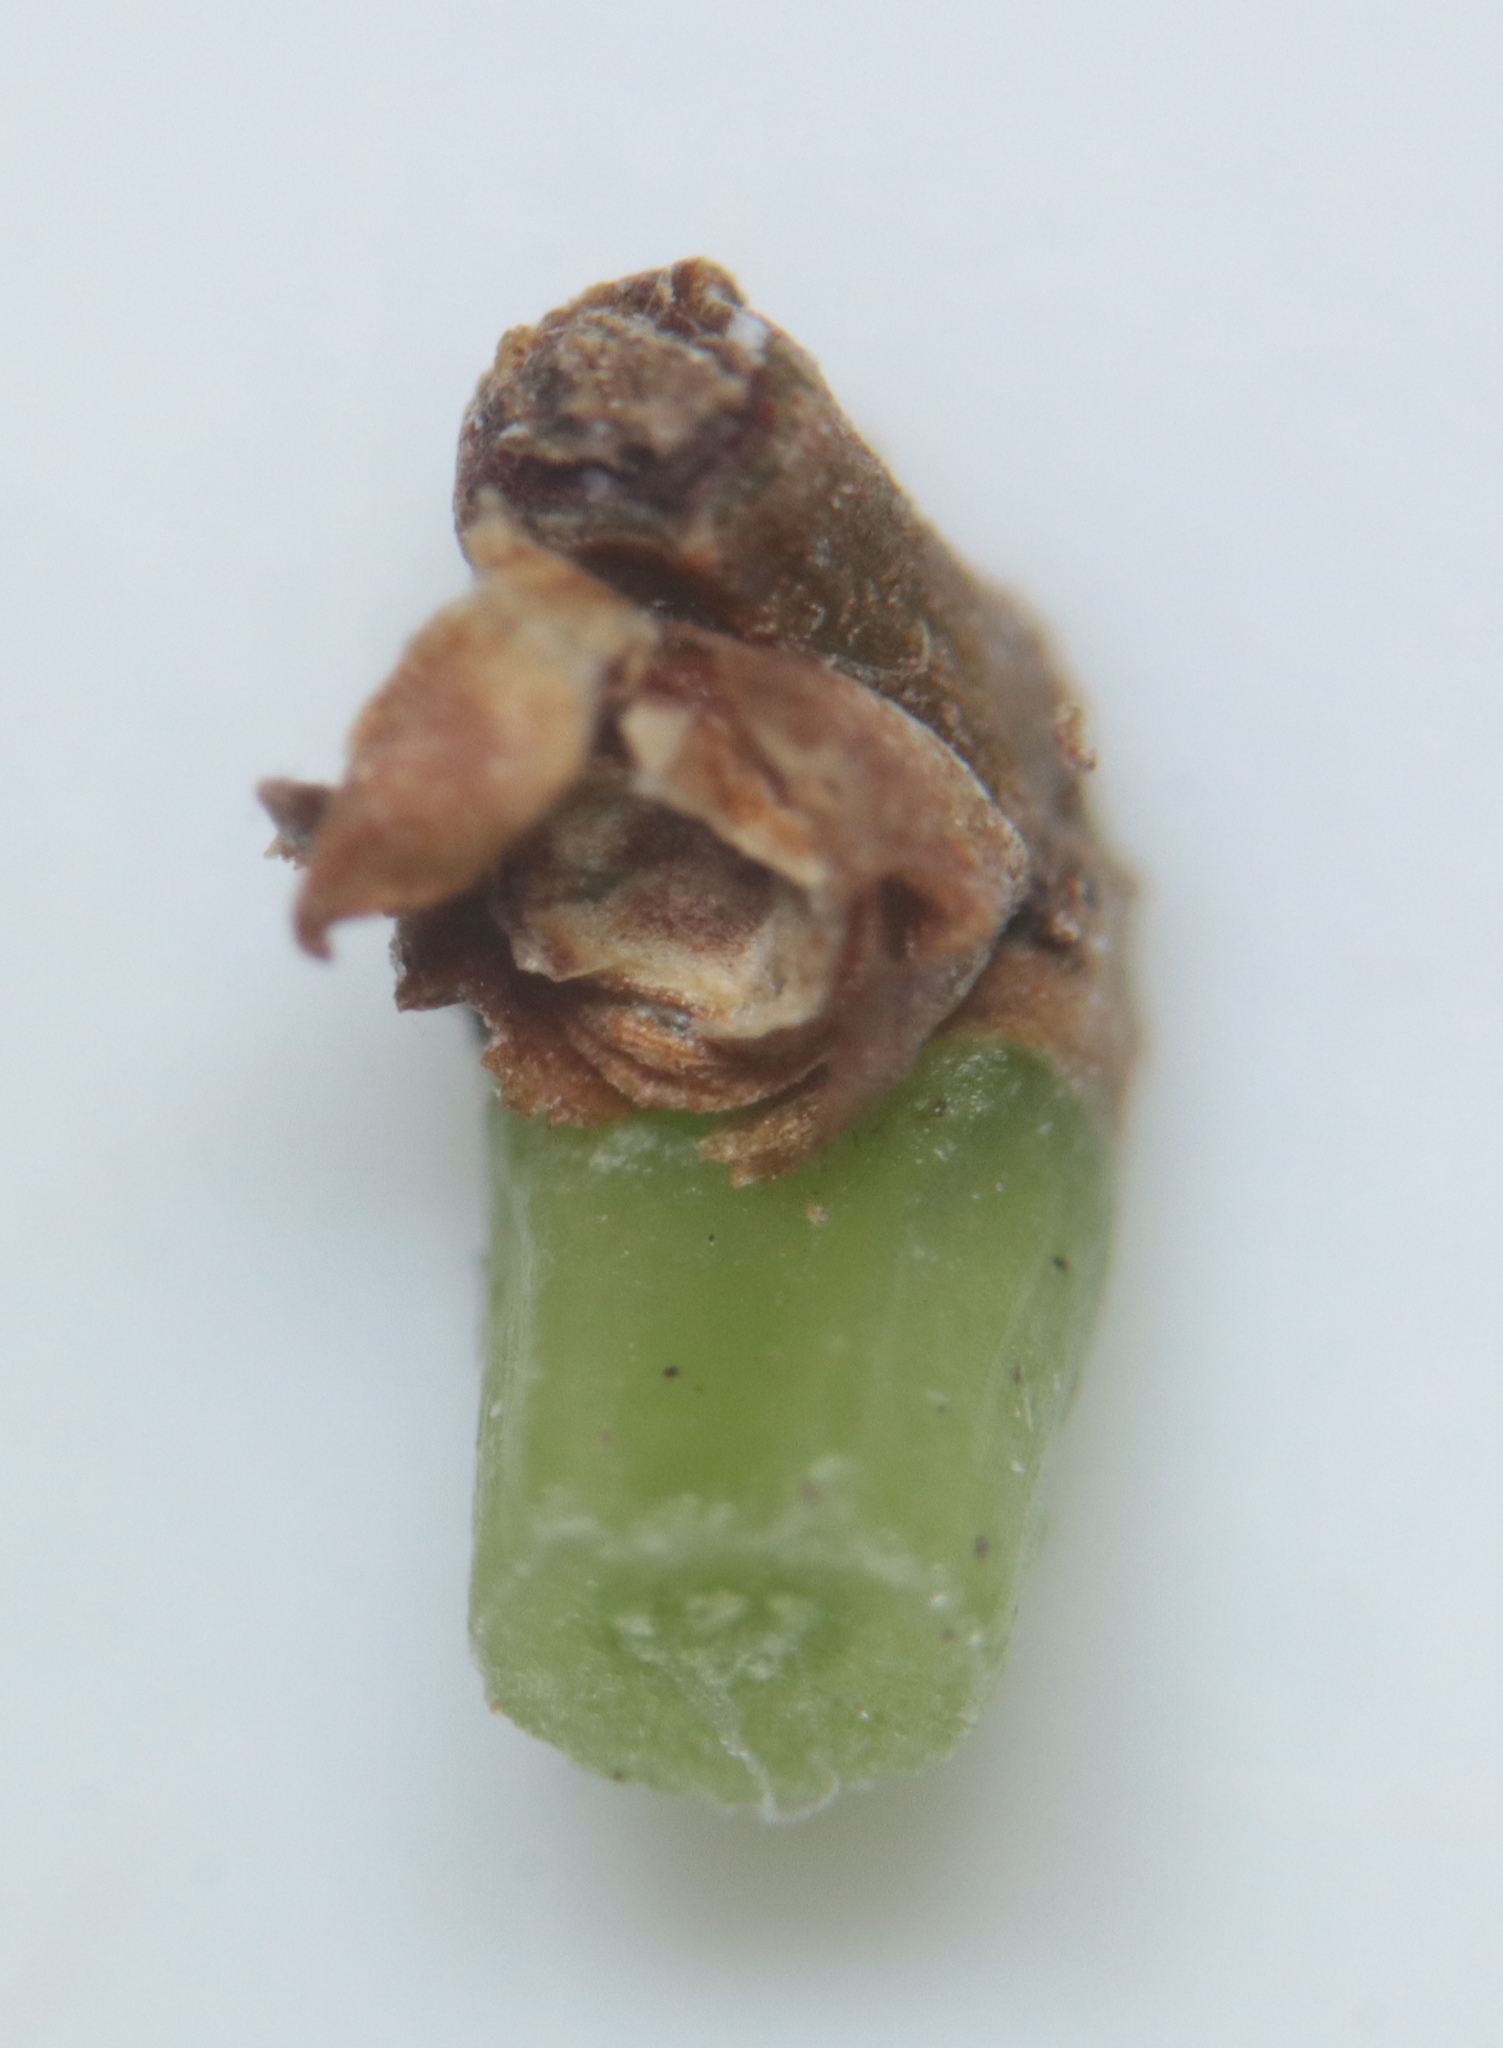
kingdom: Plantae
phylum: Tracheophyta
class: Magnoliopsida
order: Celastrales
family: Celastraceae
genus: Celastrus
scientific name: Celastrus orbiculatus
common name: Oriental bittersweet
